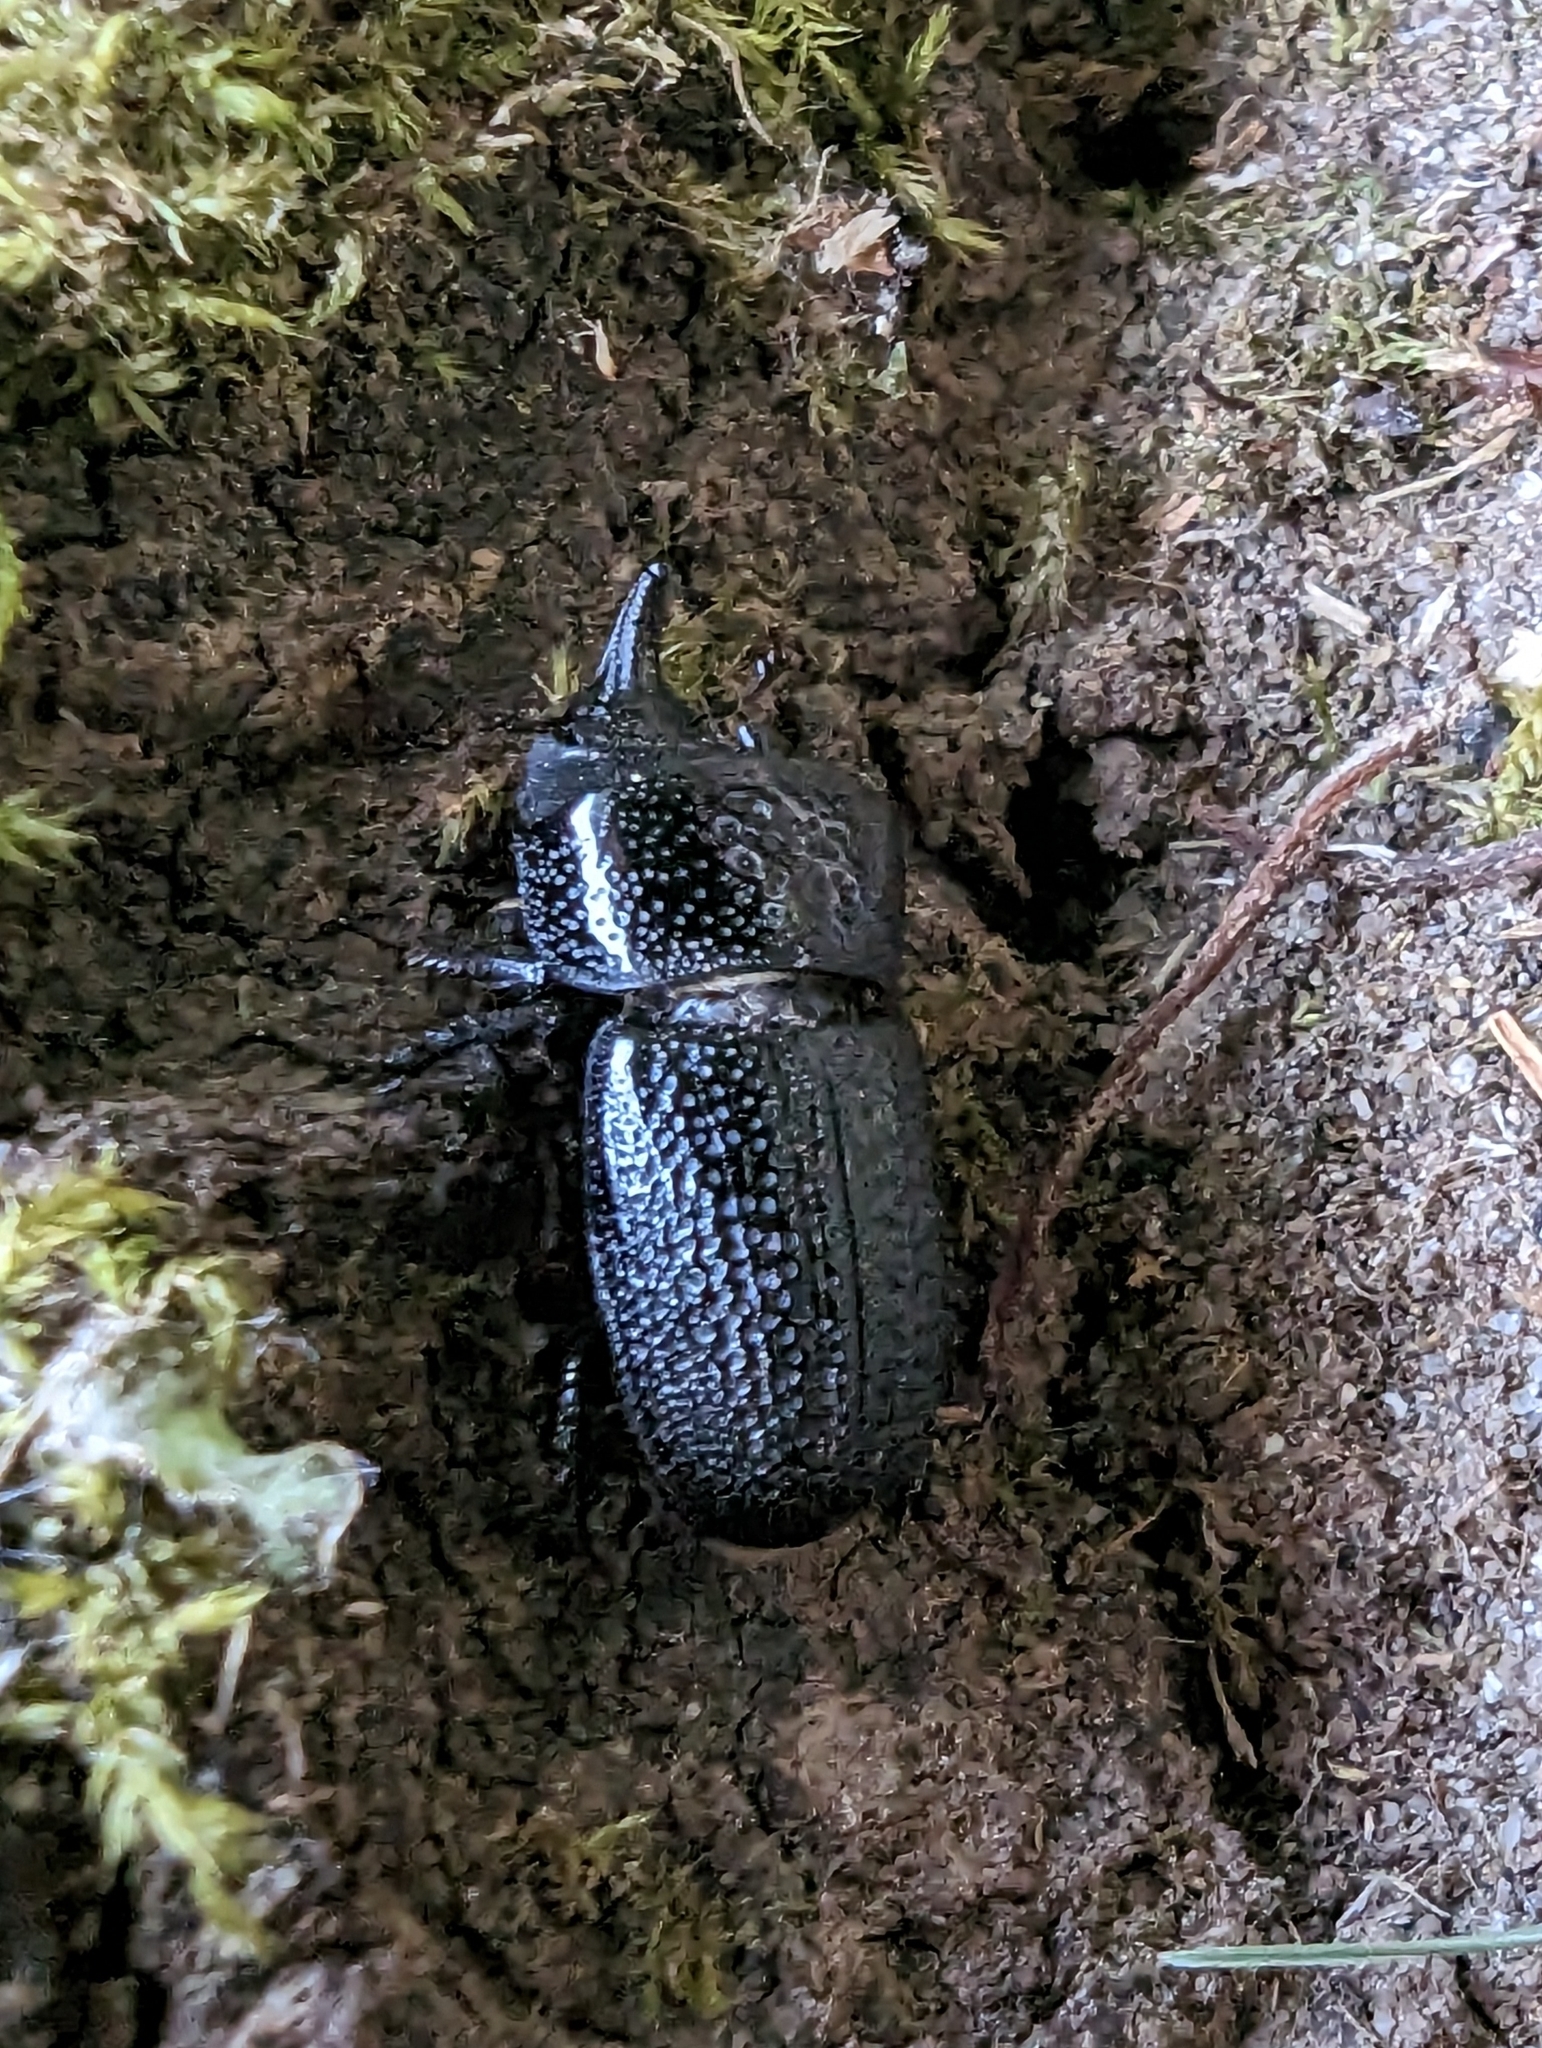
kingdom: Animalia
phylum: Arthropoda
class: Insecta
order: Coleoptera
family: Lucanidae
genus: Sinodendron
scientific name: Sinodendron rugosum
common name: Rugose stag beelte
